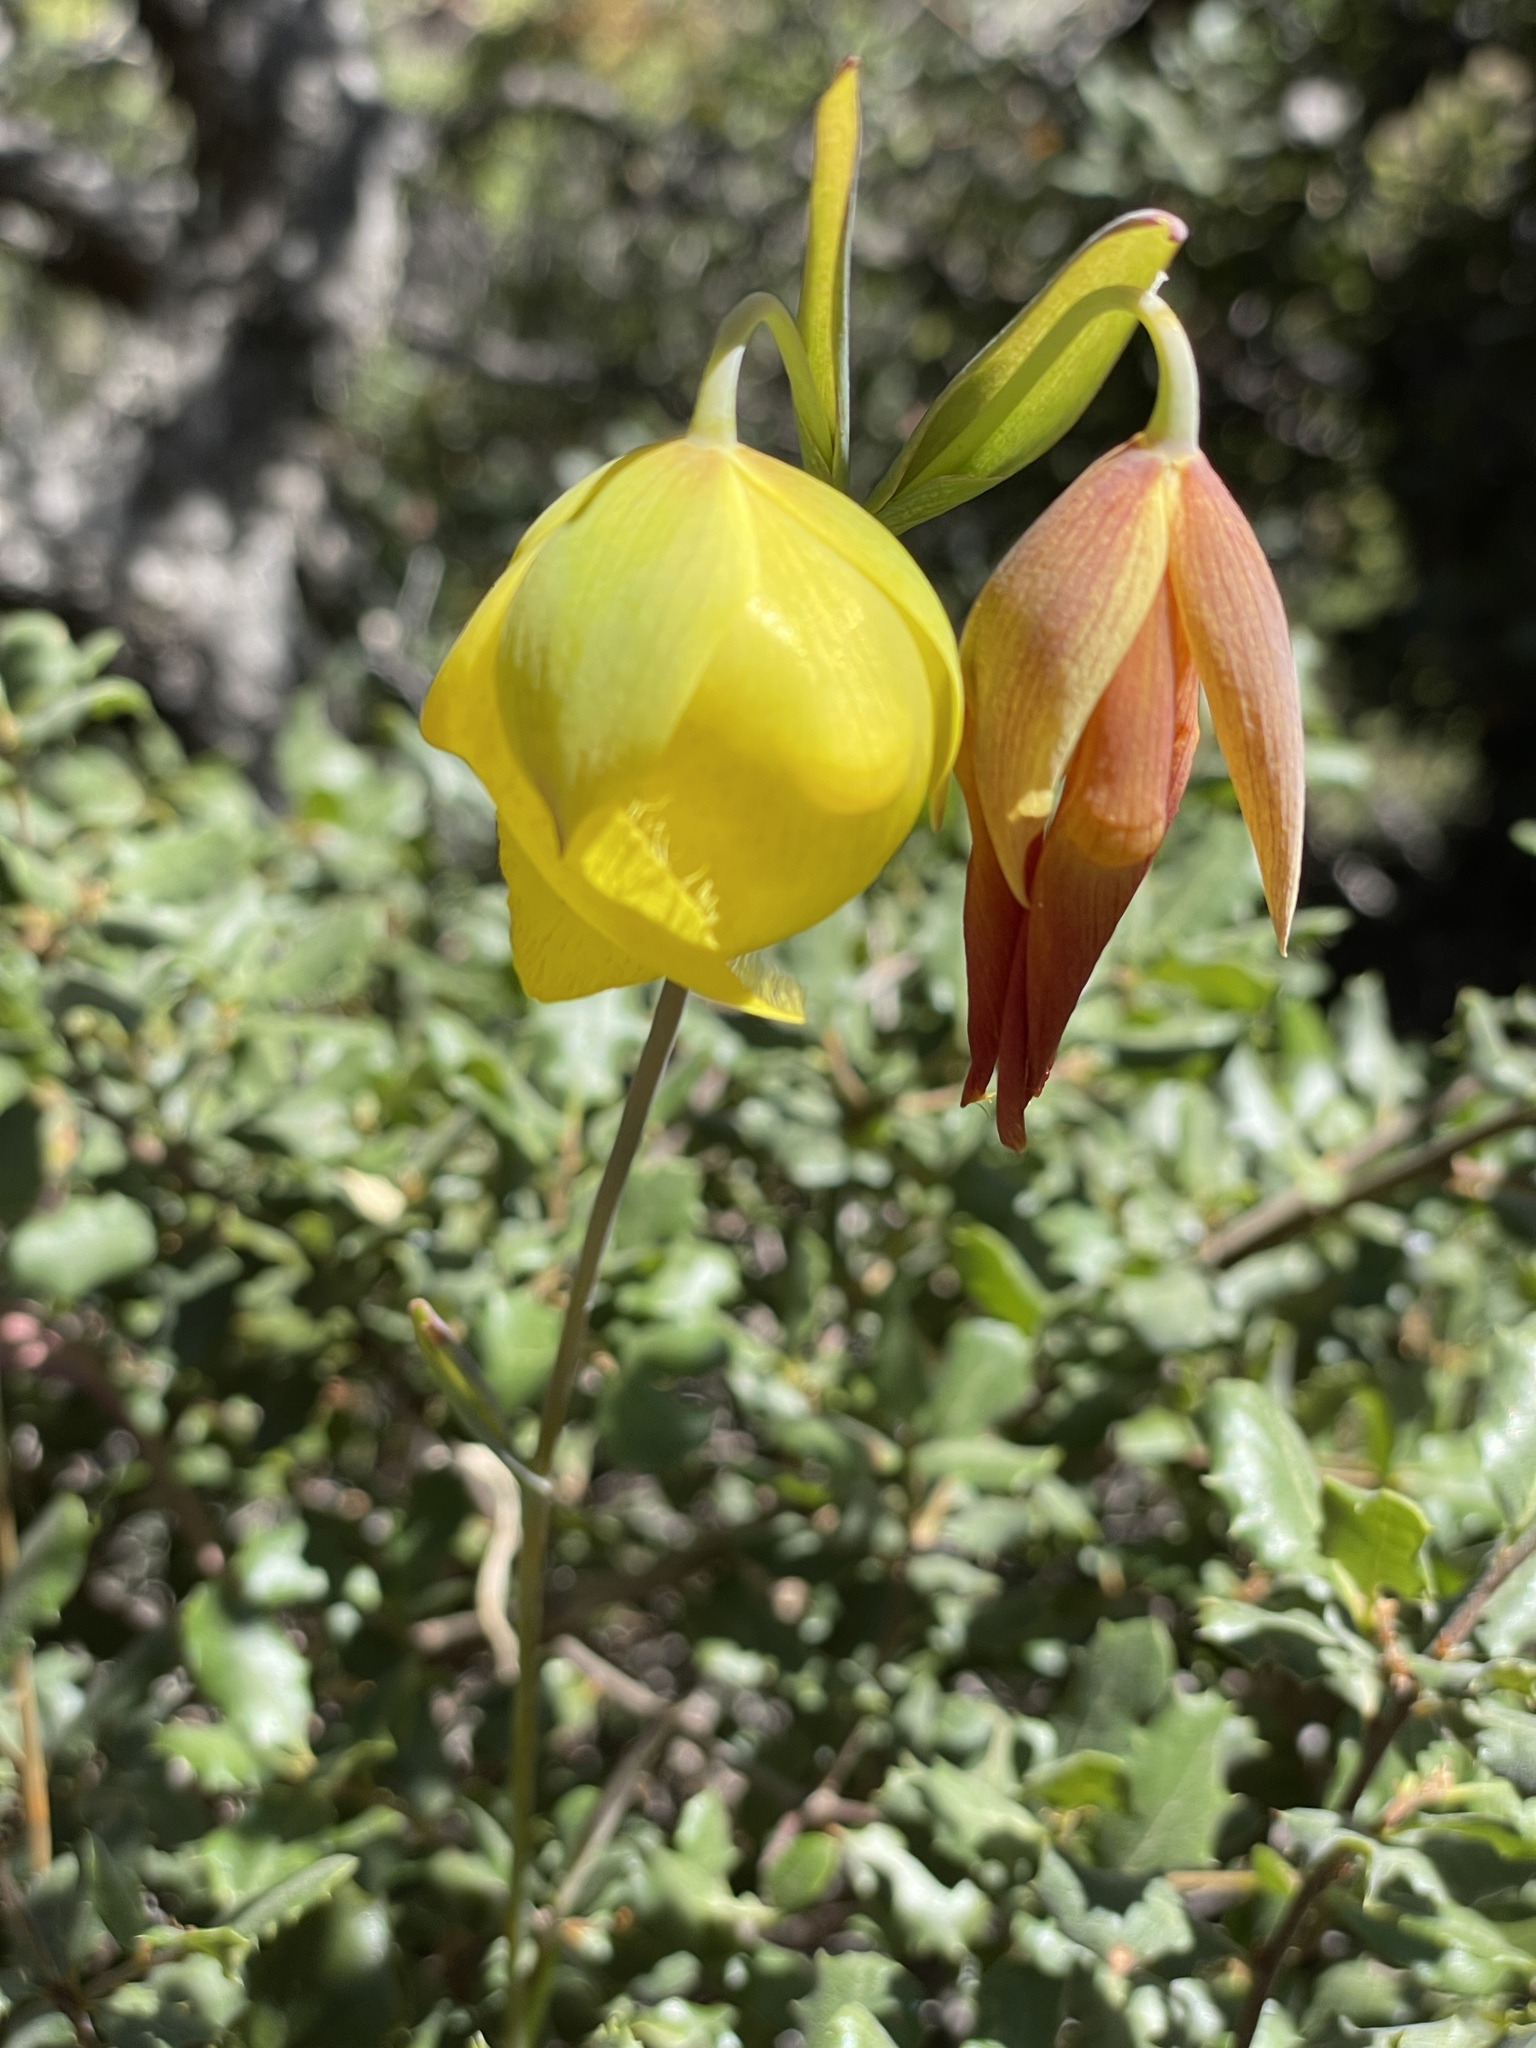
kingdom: Plantae
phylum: Tracheophyta
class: Liliopsida
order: Liliales
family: Liliaceae
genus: Calochortus
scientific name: Calochortus raichei
